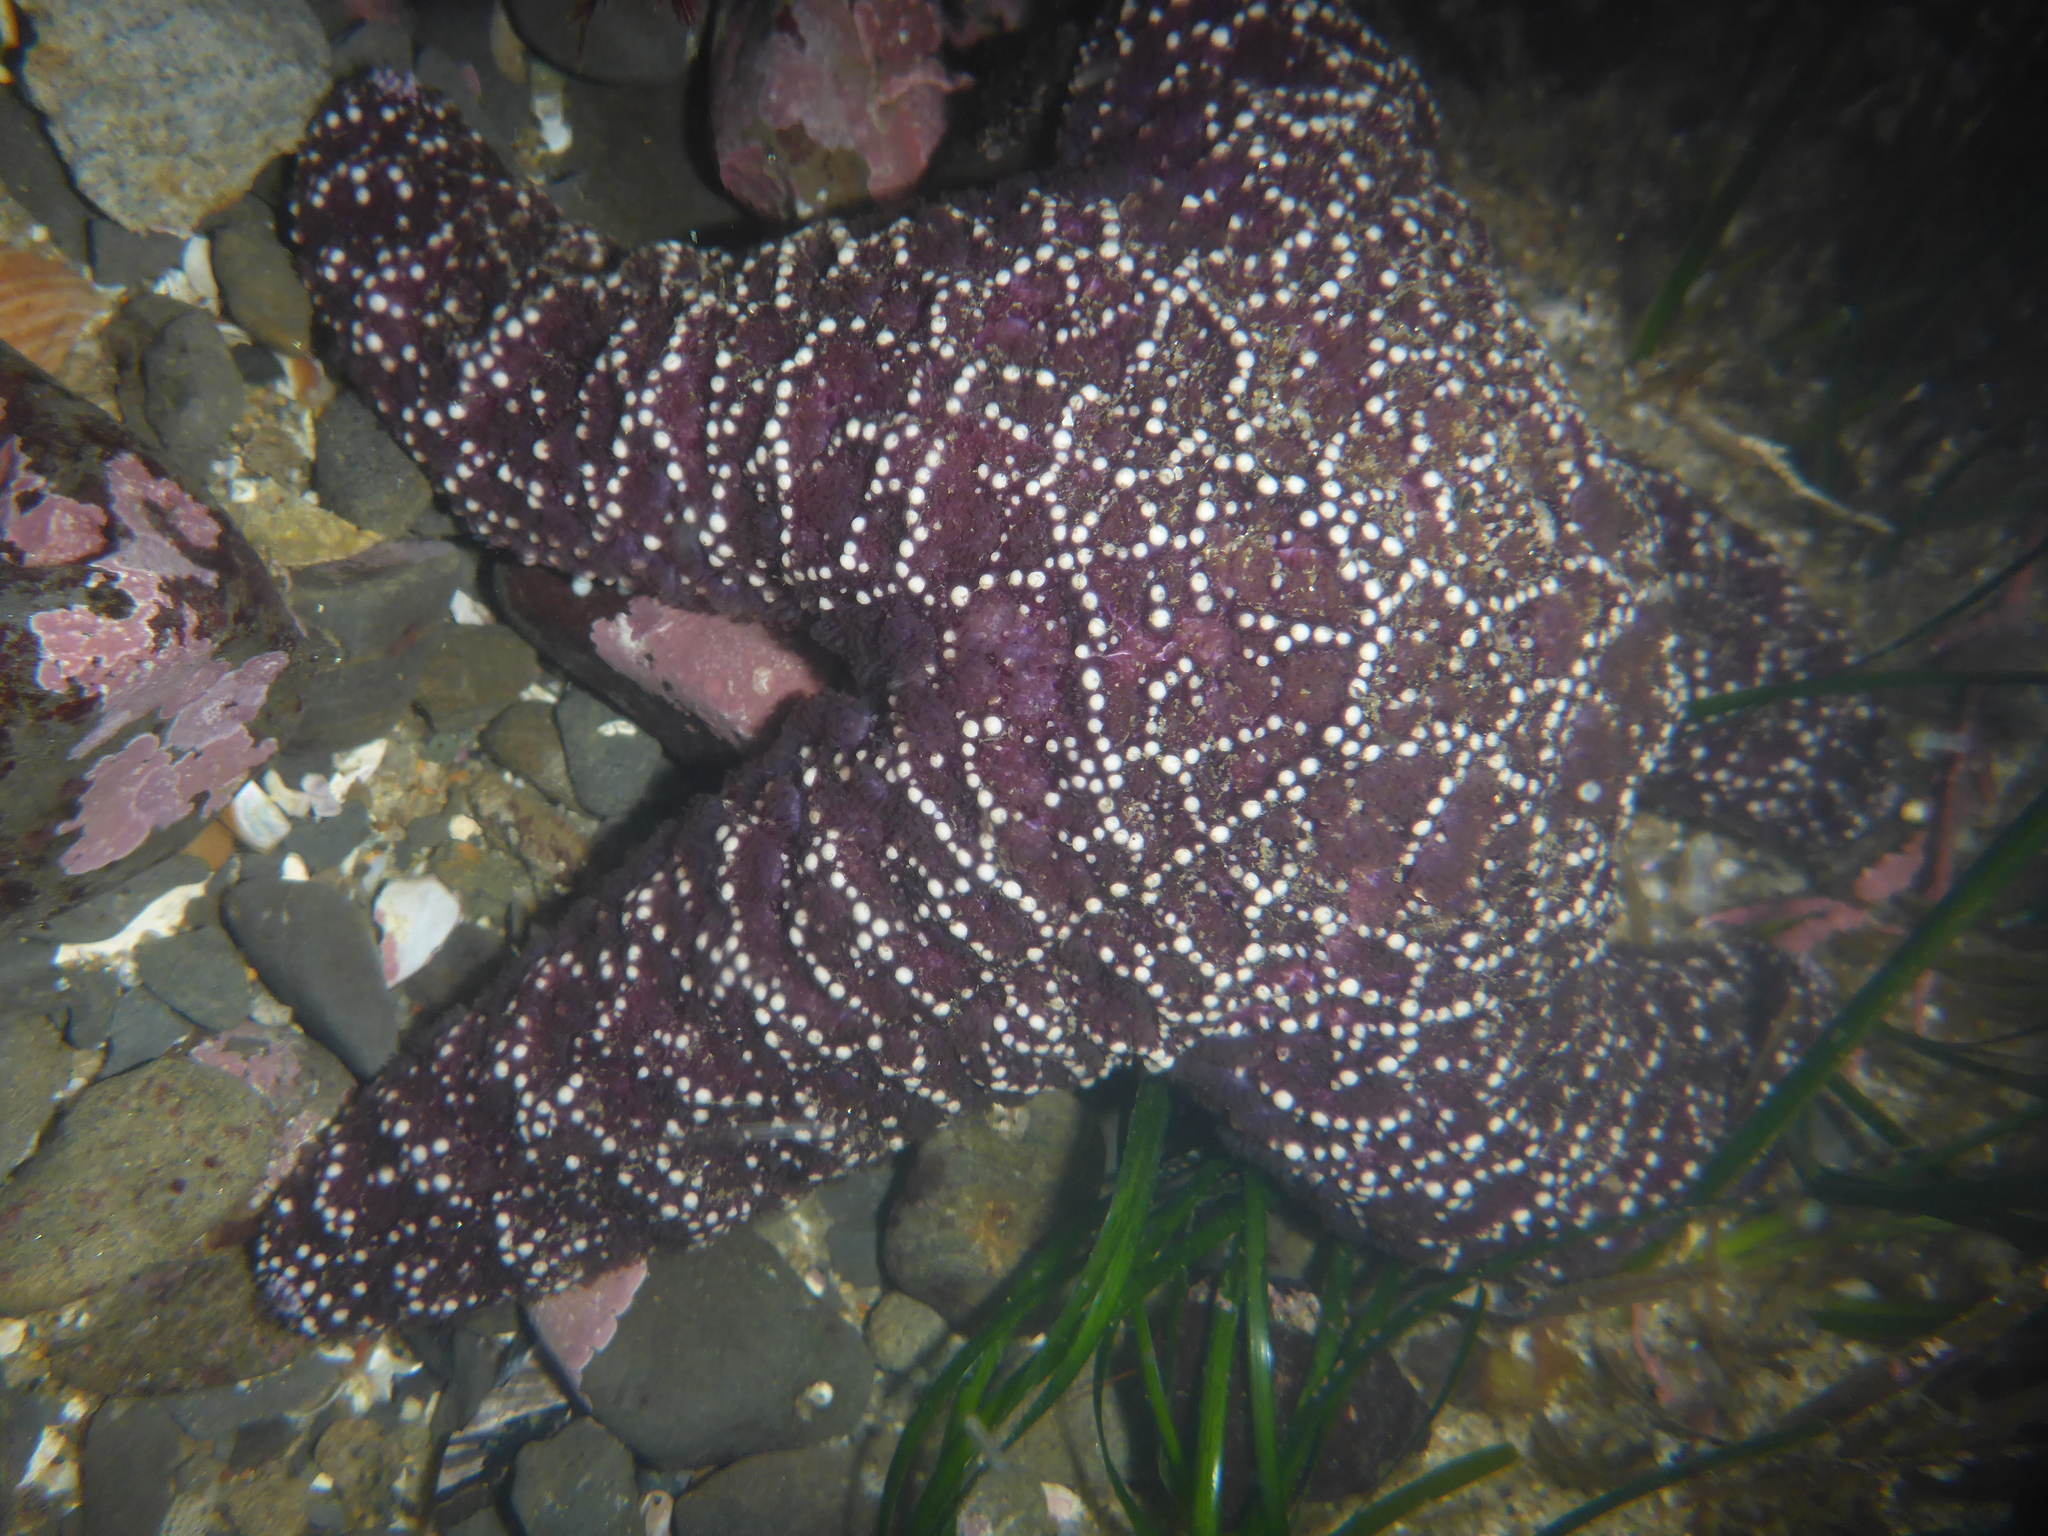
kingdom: Animalia
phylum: Echinodermata
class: Asteroidea
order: Forcipulatida
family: Asteriidae
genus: Pisaster
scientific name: Pisaster ochraceus
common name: Ochre stars
